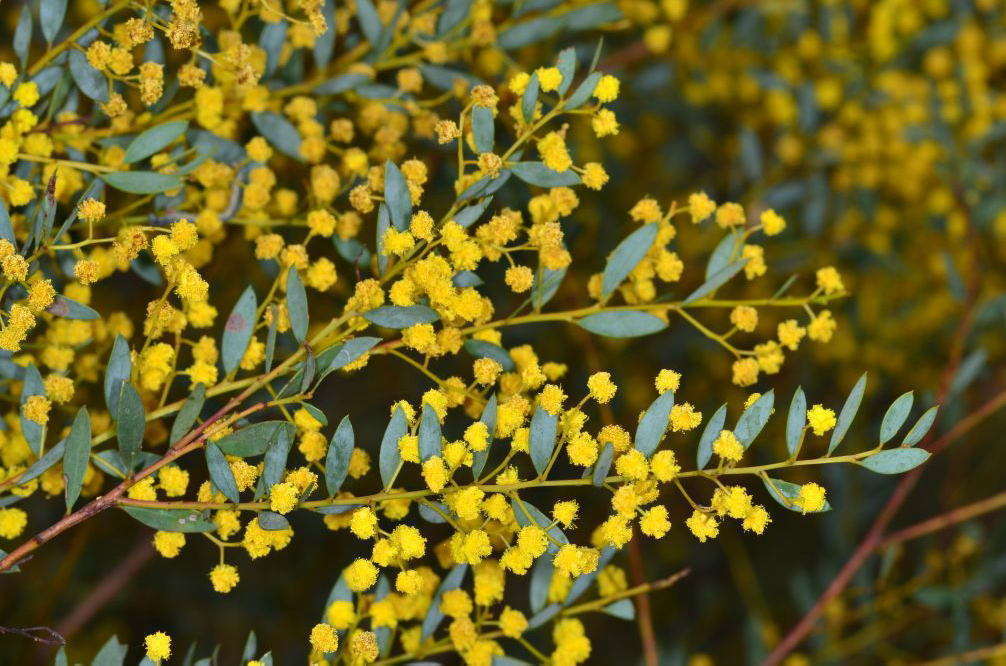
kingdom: Plantae
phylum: Tracheophyta
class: Magnoliopsida
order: Fabales
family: Fabaceae
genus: Acacia
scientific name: Acacia buxifolia
